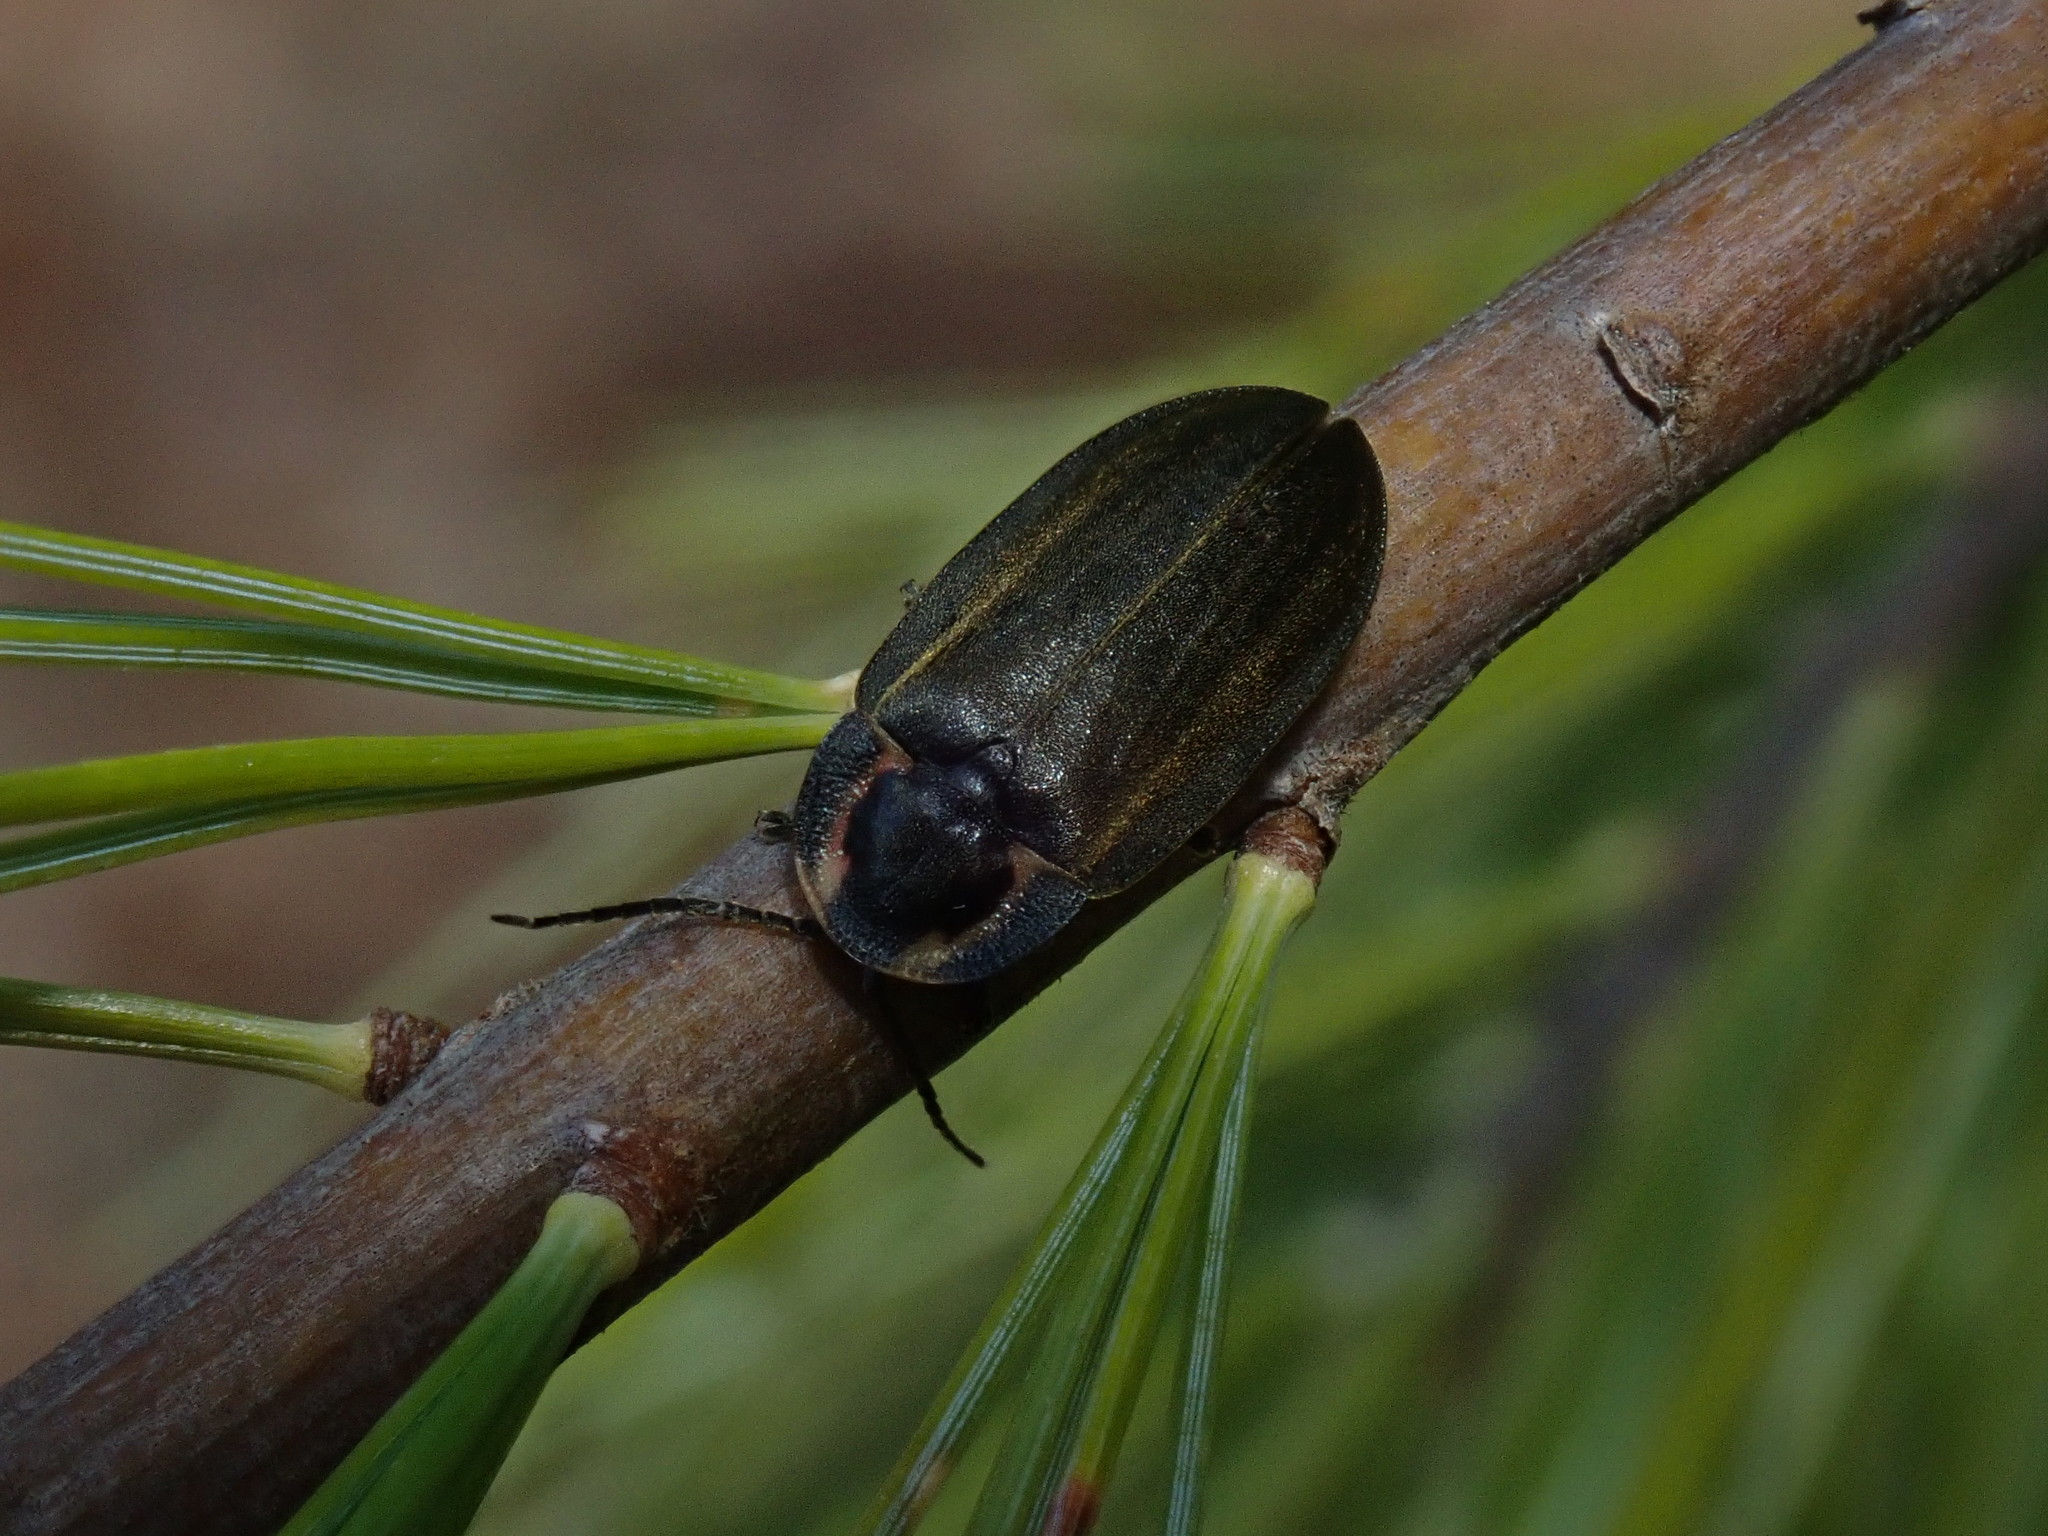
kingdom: Animalia
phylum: Arthropoda
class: Insecta
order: Coleoptera
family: Lampyridae
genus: Photinus
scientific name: Photinus corrusca
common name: Winter firefly
